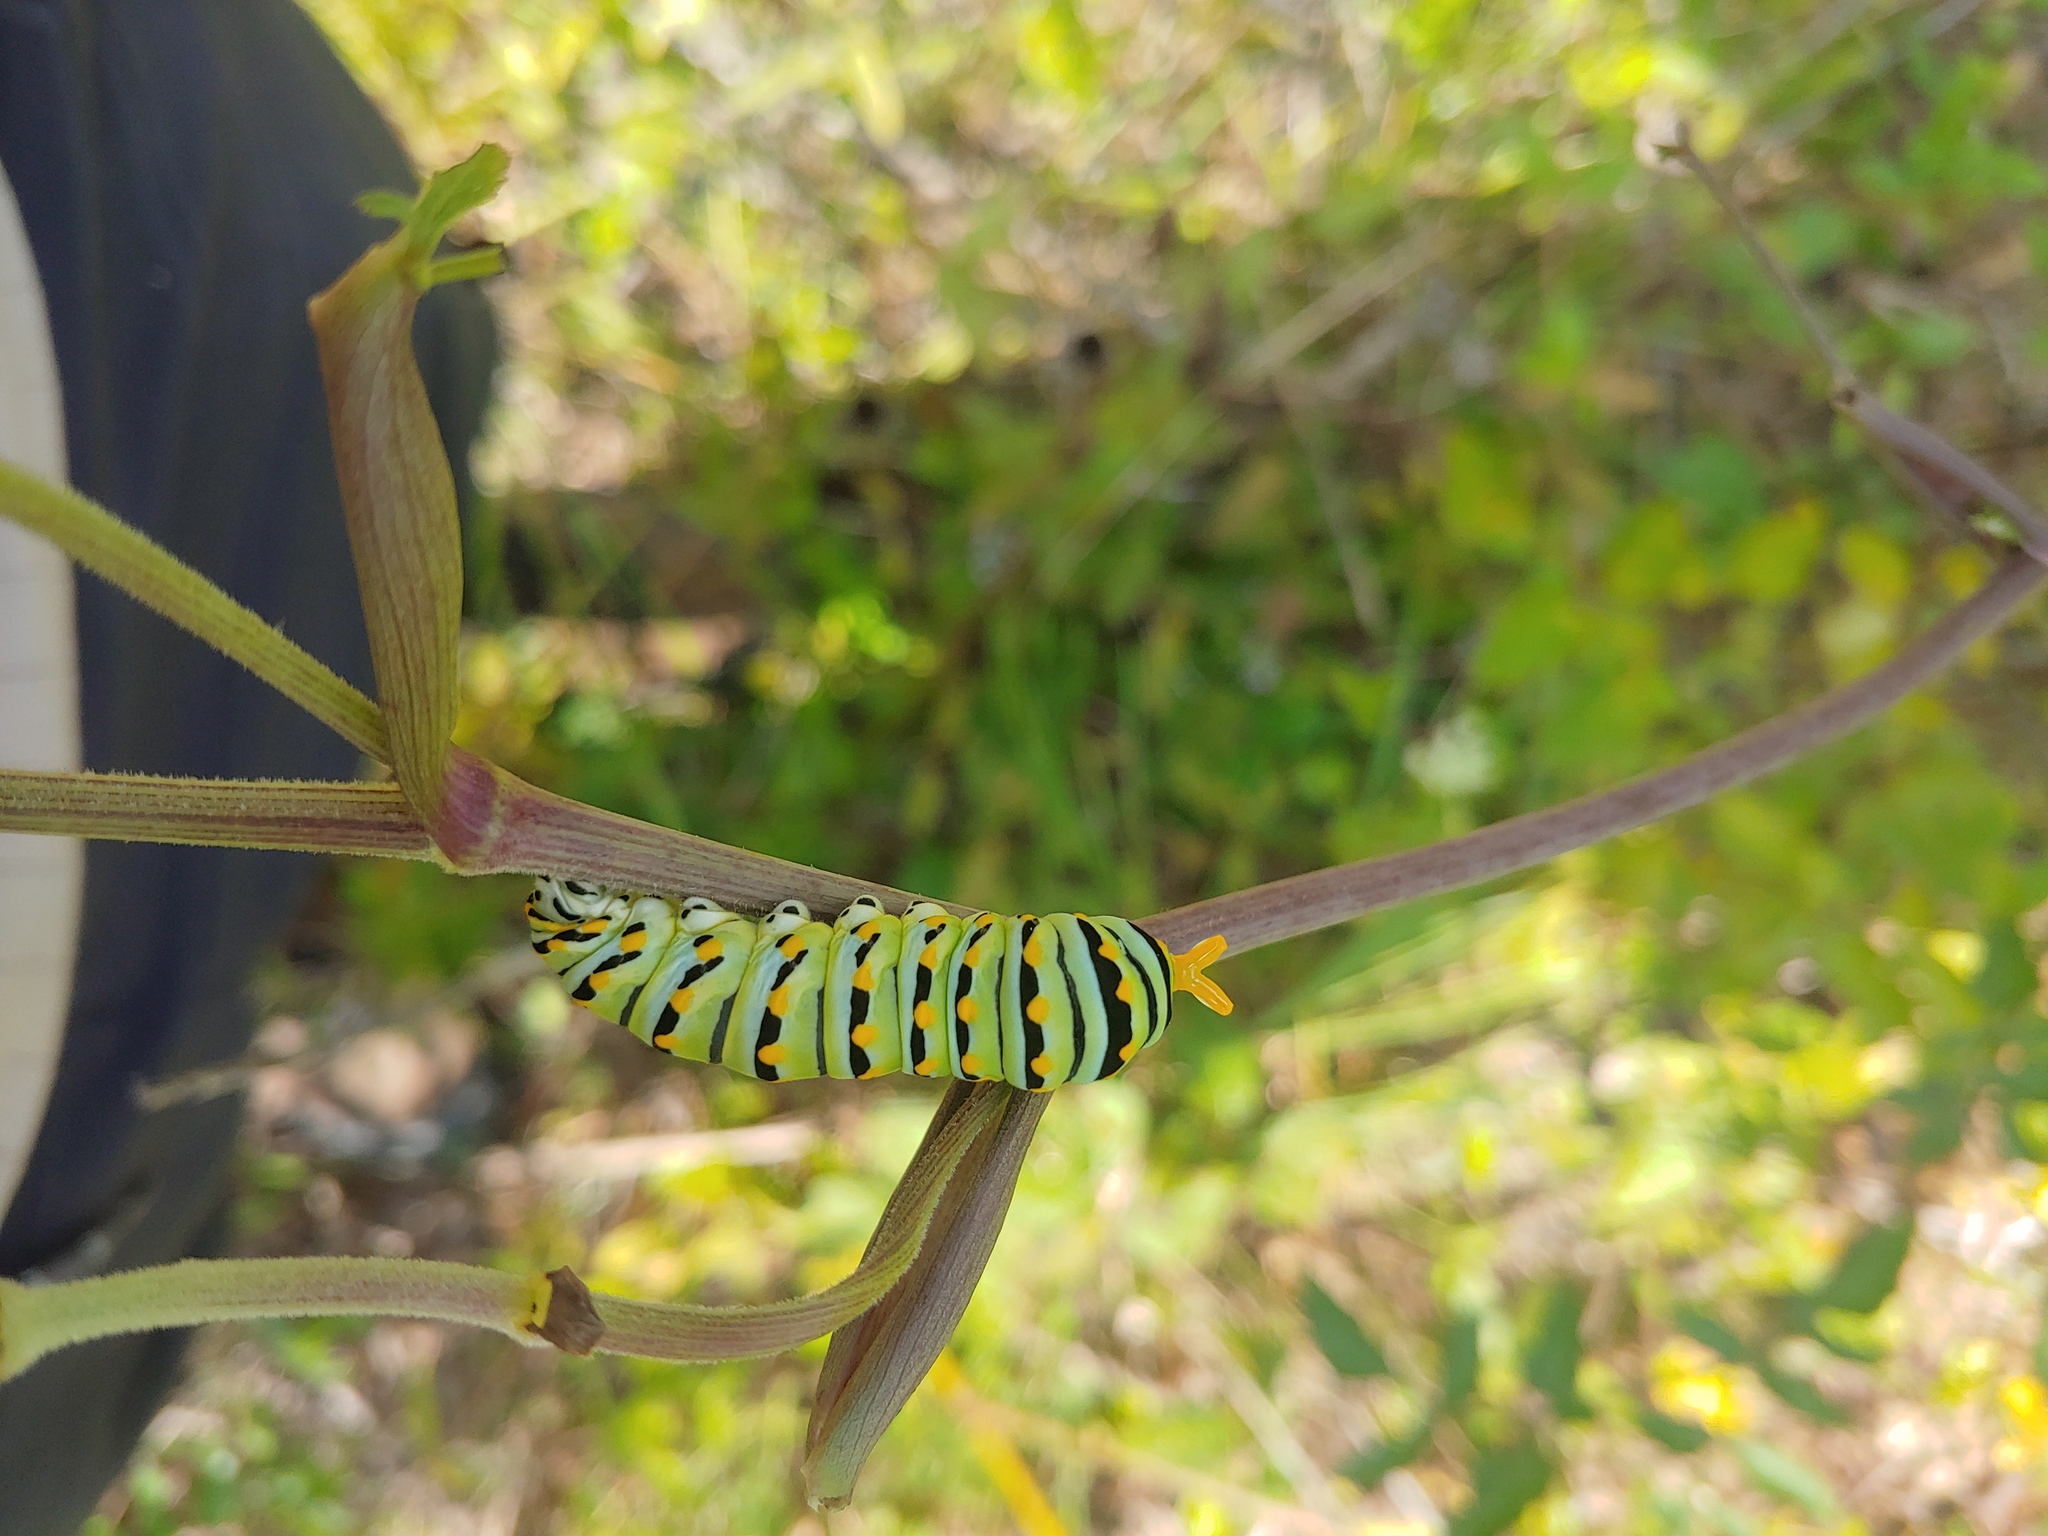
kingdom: Animalia
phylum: Arthropoda
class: Insecta
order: Lepidoptera
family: Papilionidae
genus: Papilio
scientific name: Papilio polyxenes
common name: Black swallowtail
